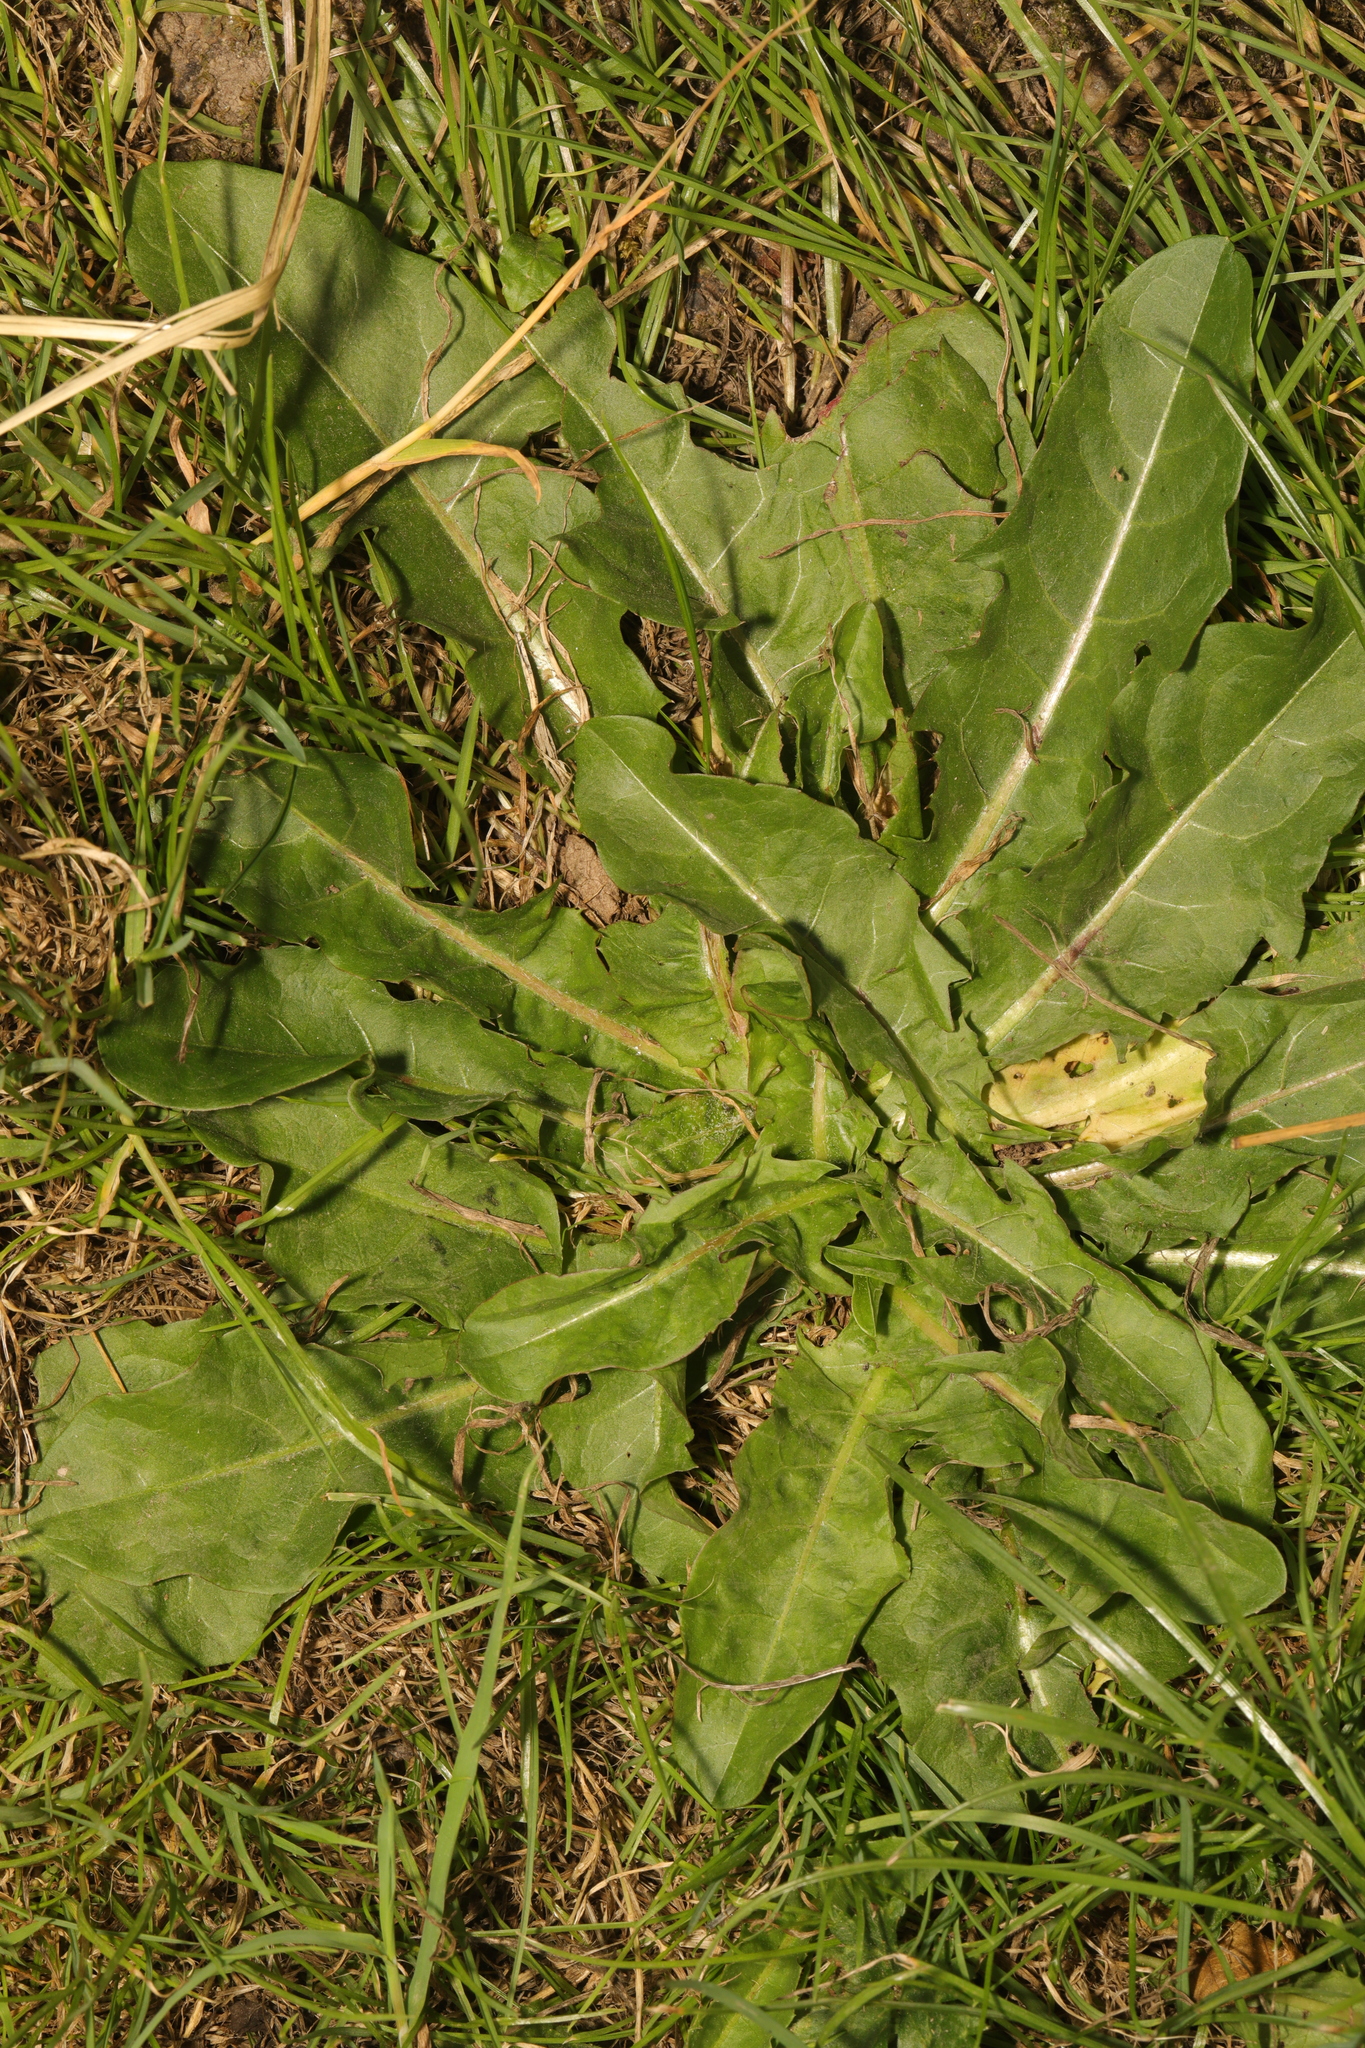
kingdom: Plantae
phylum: Tracheophyta
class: Magnoliopsida
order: Asterales
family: Asteraceae
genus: Cichorium
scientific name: Cichorium intybus
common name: Chicory
